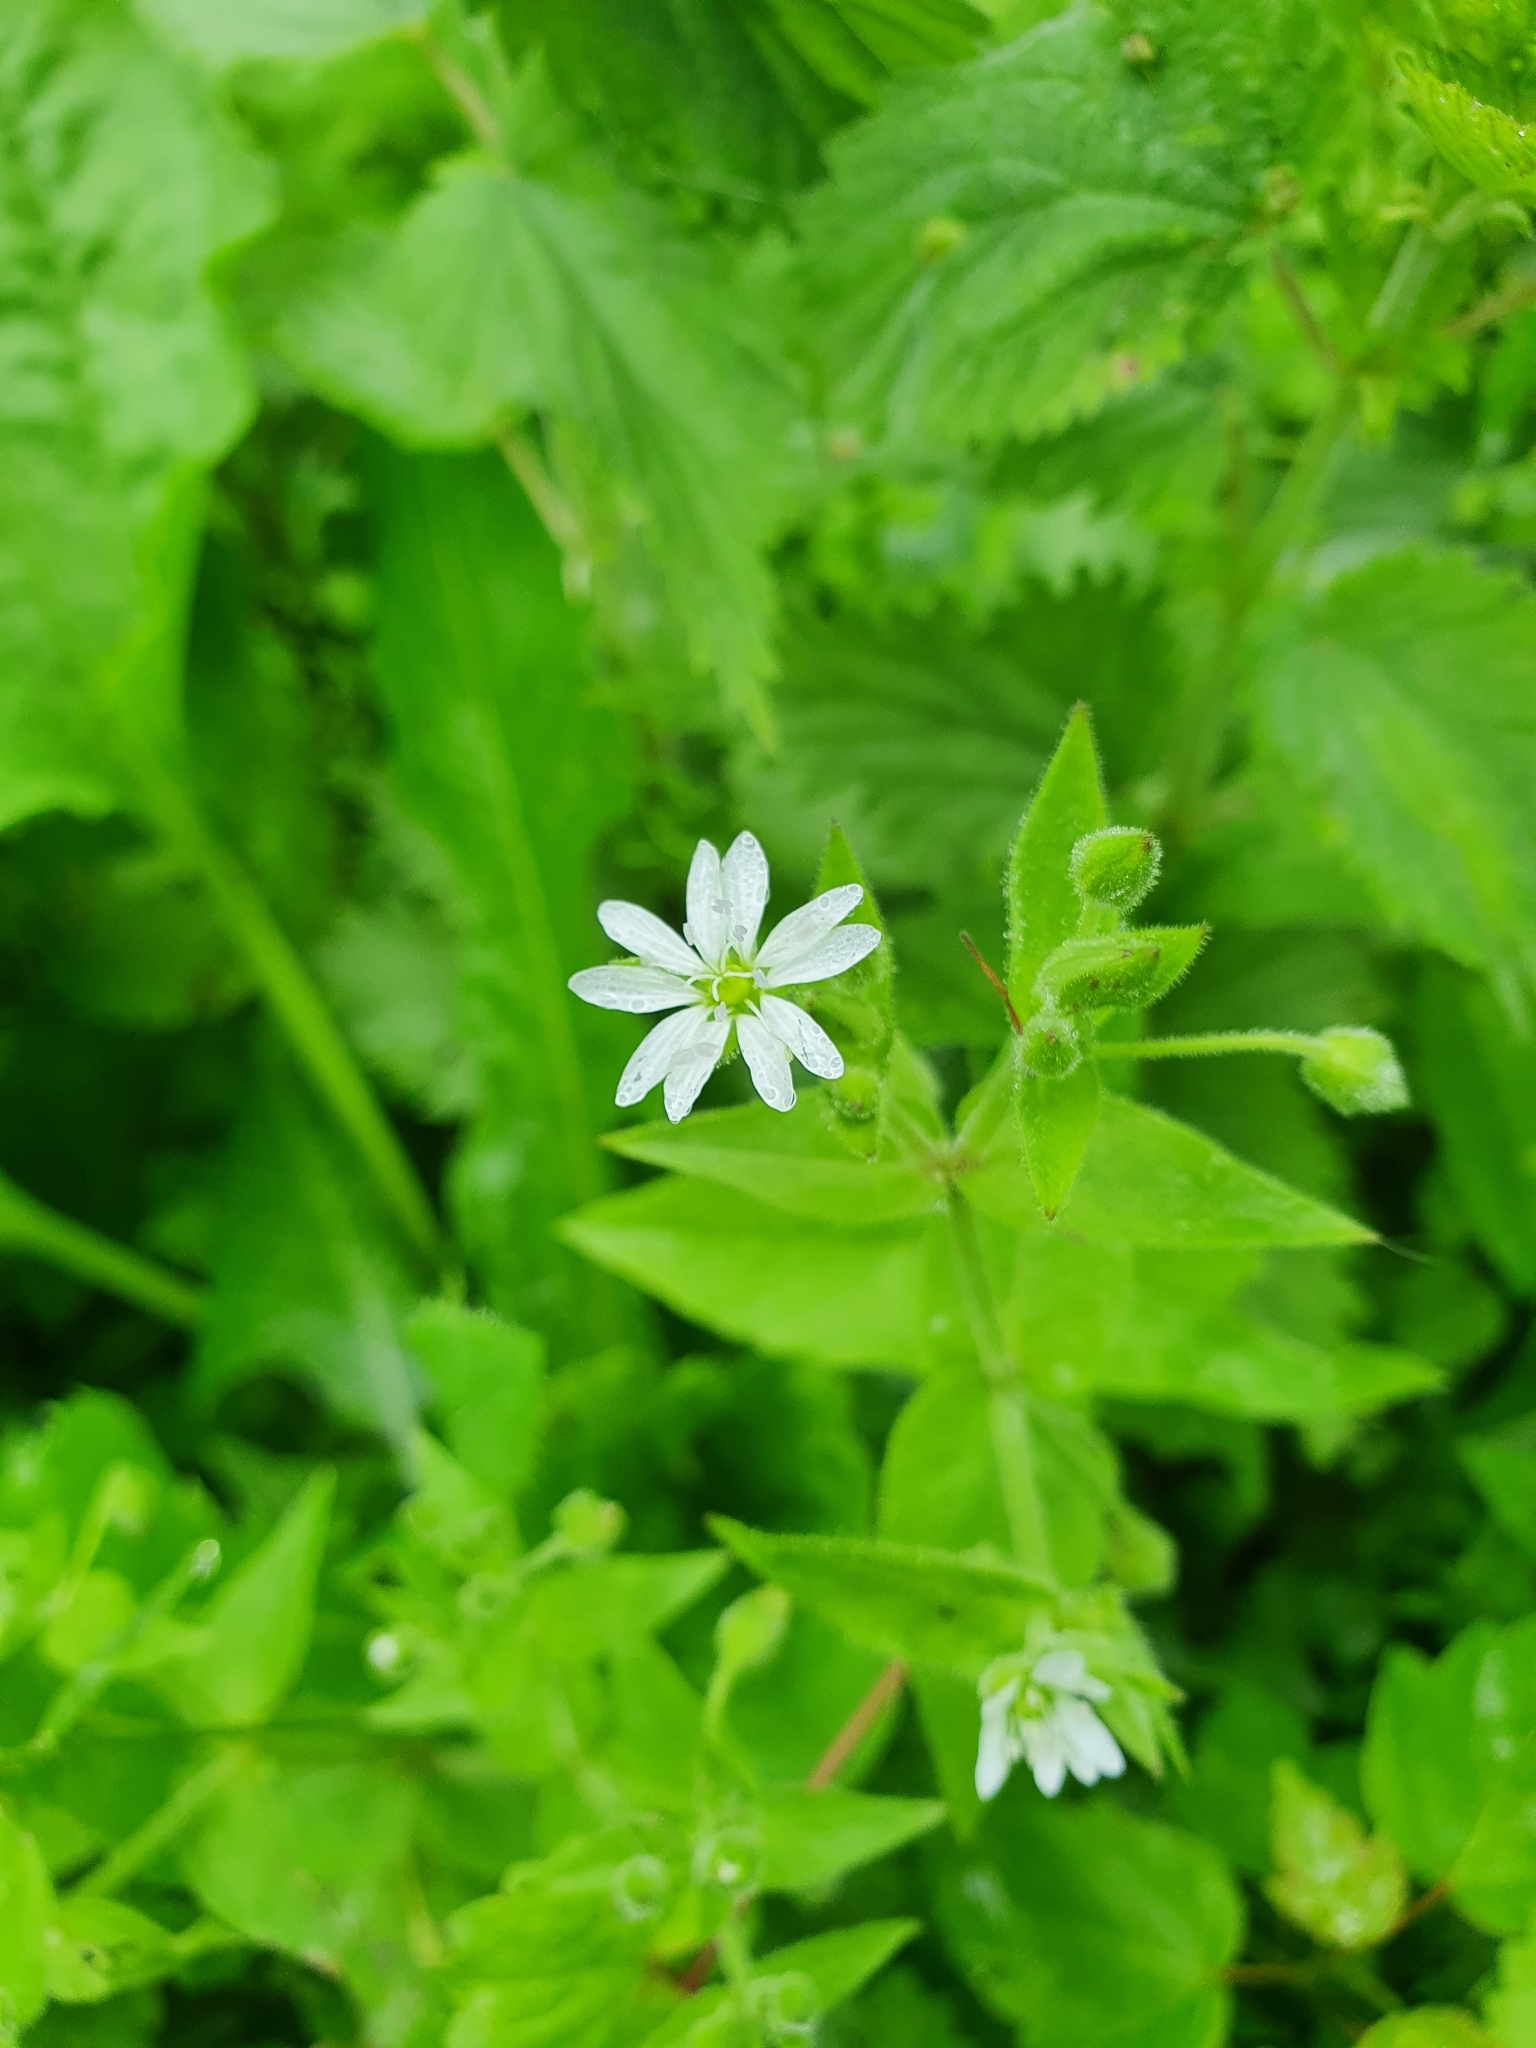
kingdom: Plantae
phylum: Tracheophyta
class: Magnoliopsida
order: Caryophyllales
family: Caryophyllaceae
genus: Stellaria
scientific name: Stellaria aquatica
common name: Water chickweed
